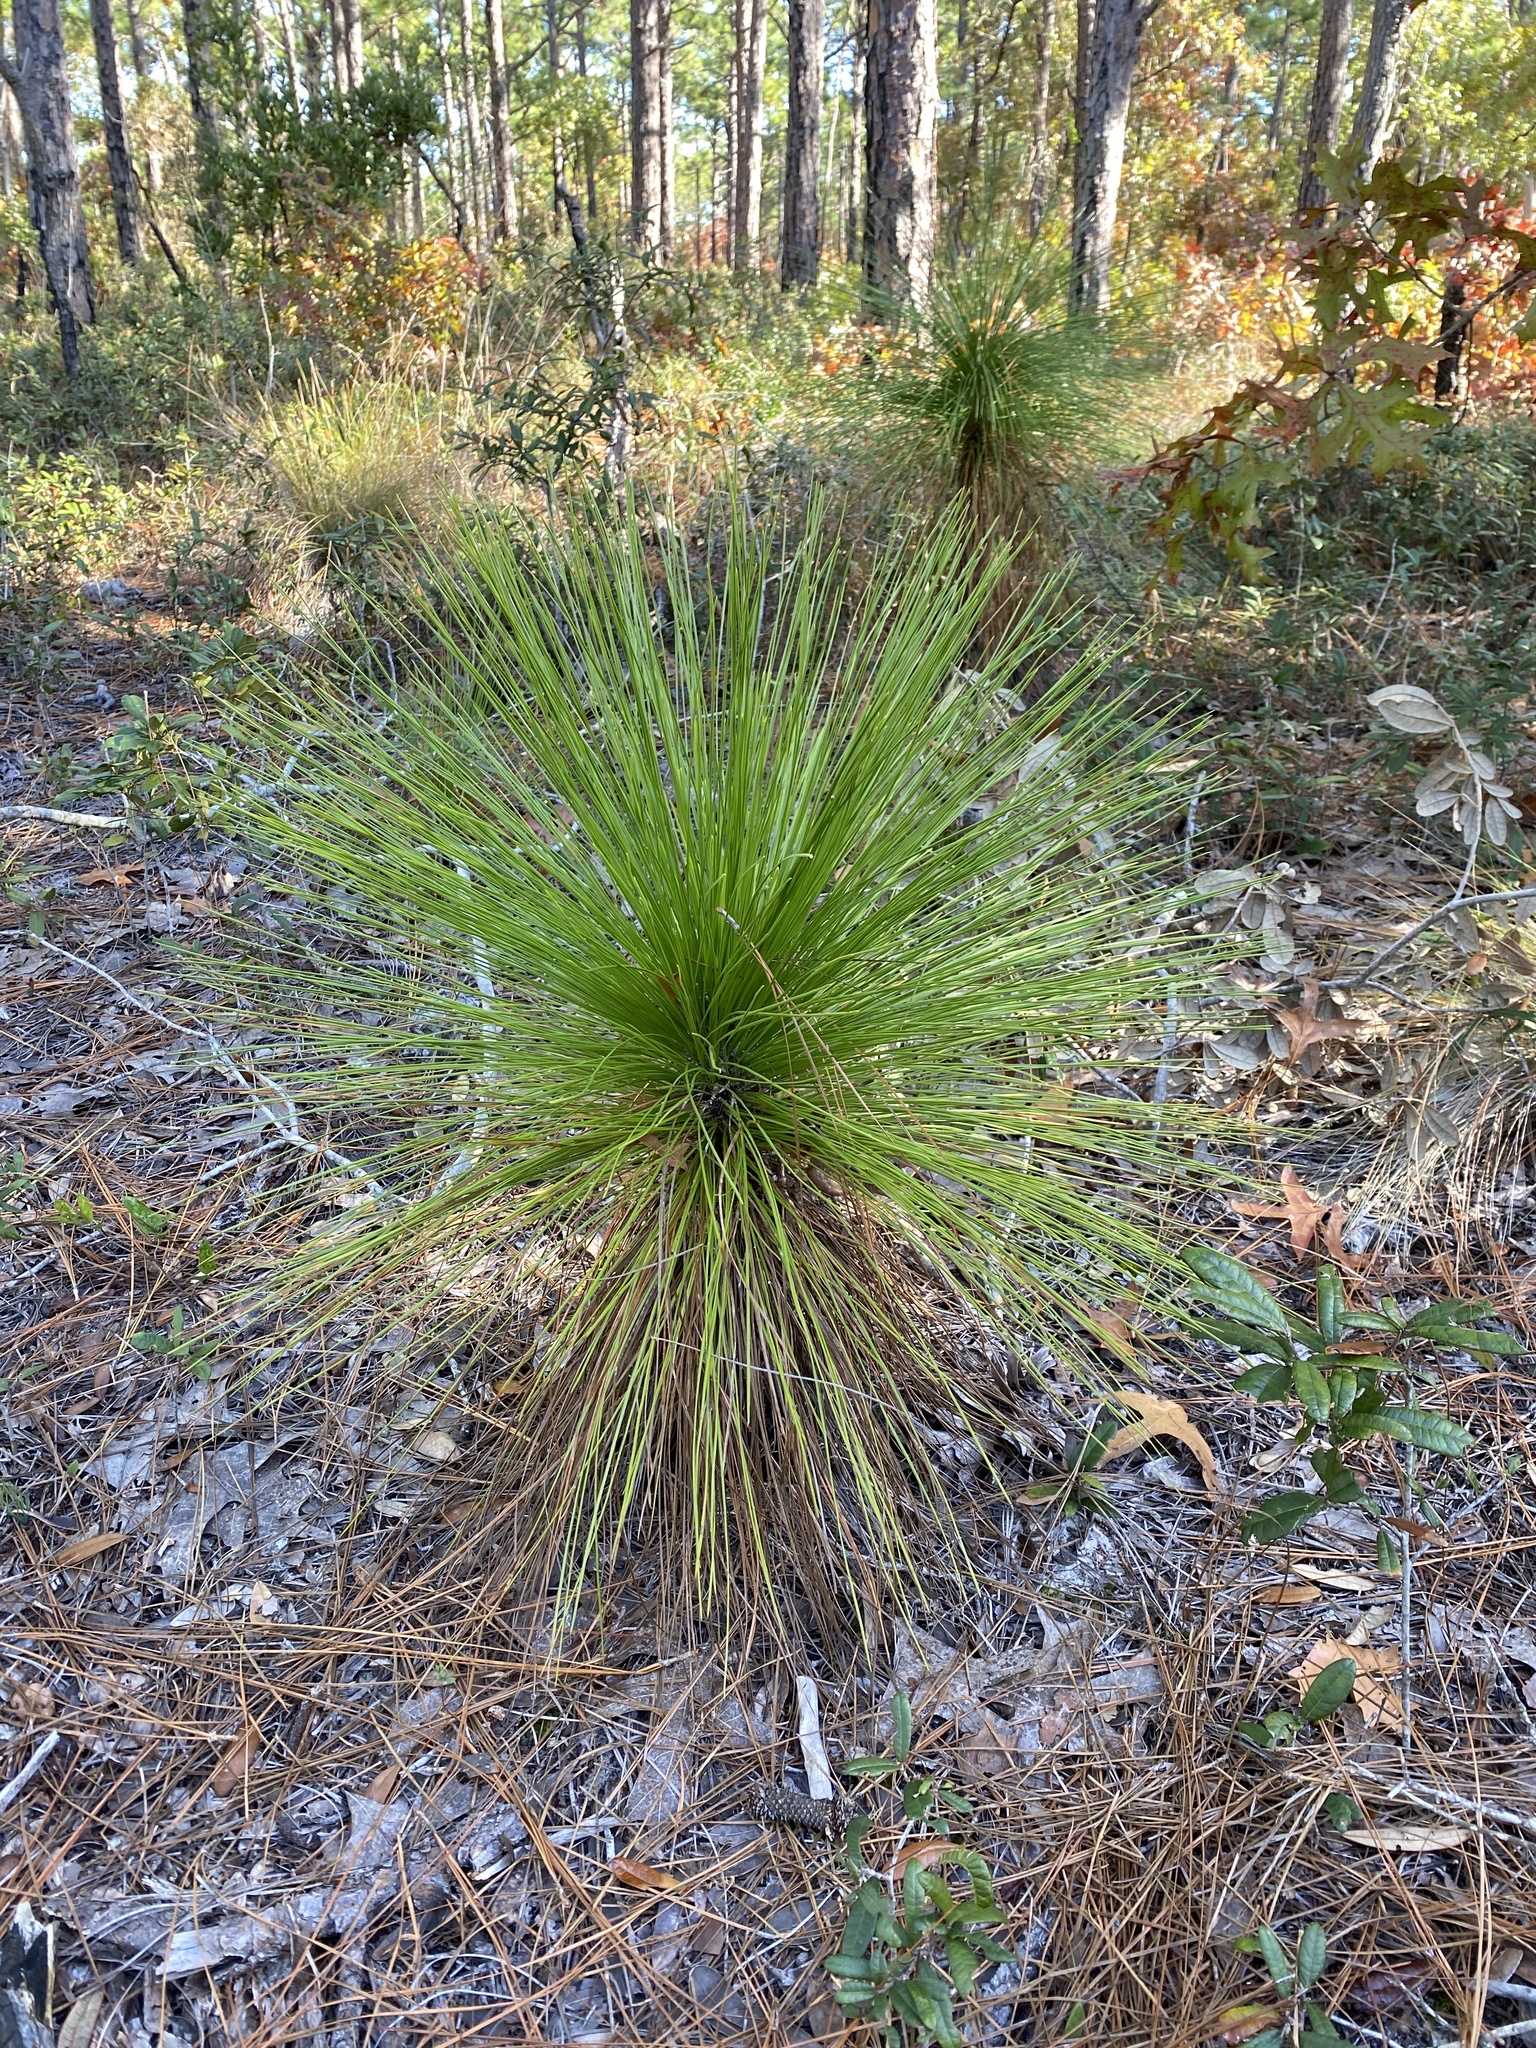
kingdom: Plantae
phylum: Tracheophyta
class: Pinopsida
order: Pinales
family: Pinaceae
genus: Pinus
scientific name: Pinus palustris
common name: Longleaf pine
